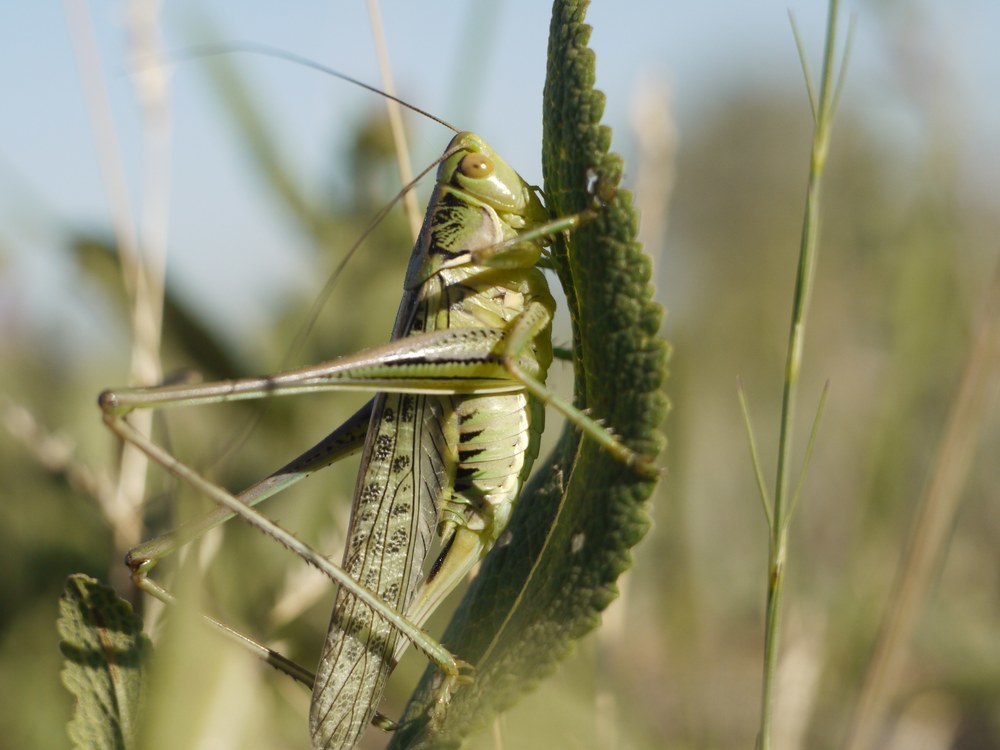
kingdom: Animalia
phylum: Arthropoda
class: Insecta
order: Orthoptera
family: Tettigoniidae
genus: Gampsocleis
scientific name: Gampsocleis glabra
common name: Heath bushcricket
